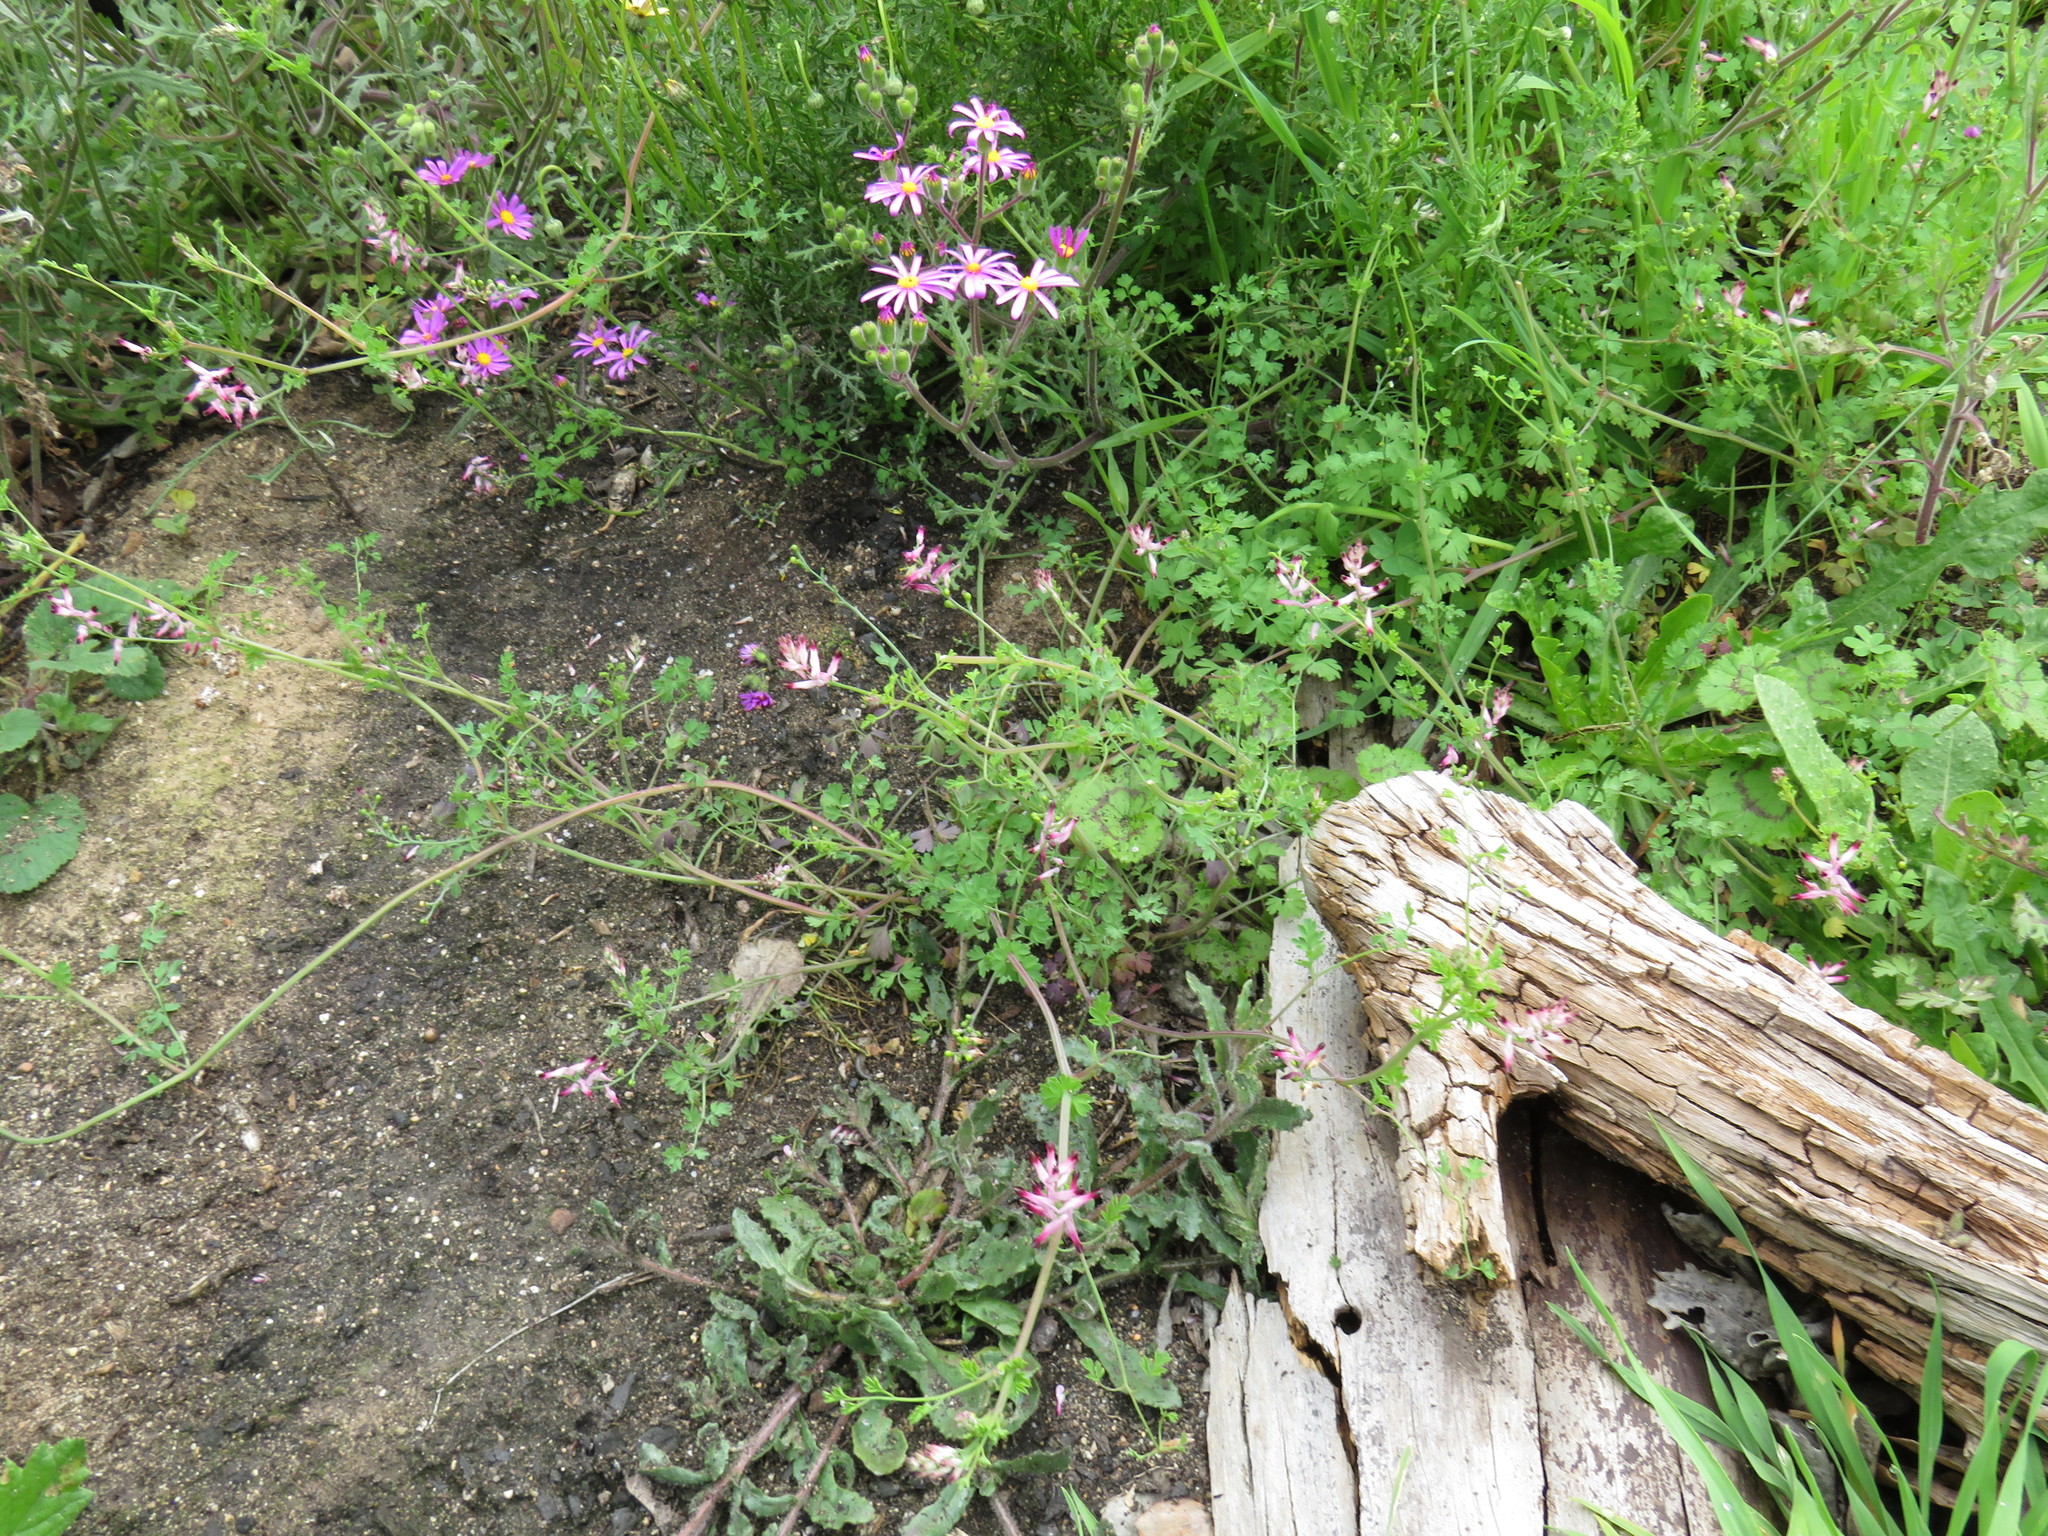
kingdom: Plantae
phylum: Tracheophyta
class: Magnoliopsida
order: Ranunculales
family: Papaveraceae
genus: Fumaria
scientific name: Fumaria muralis
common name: Common ramping-fumitory
